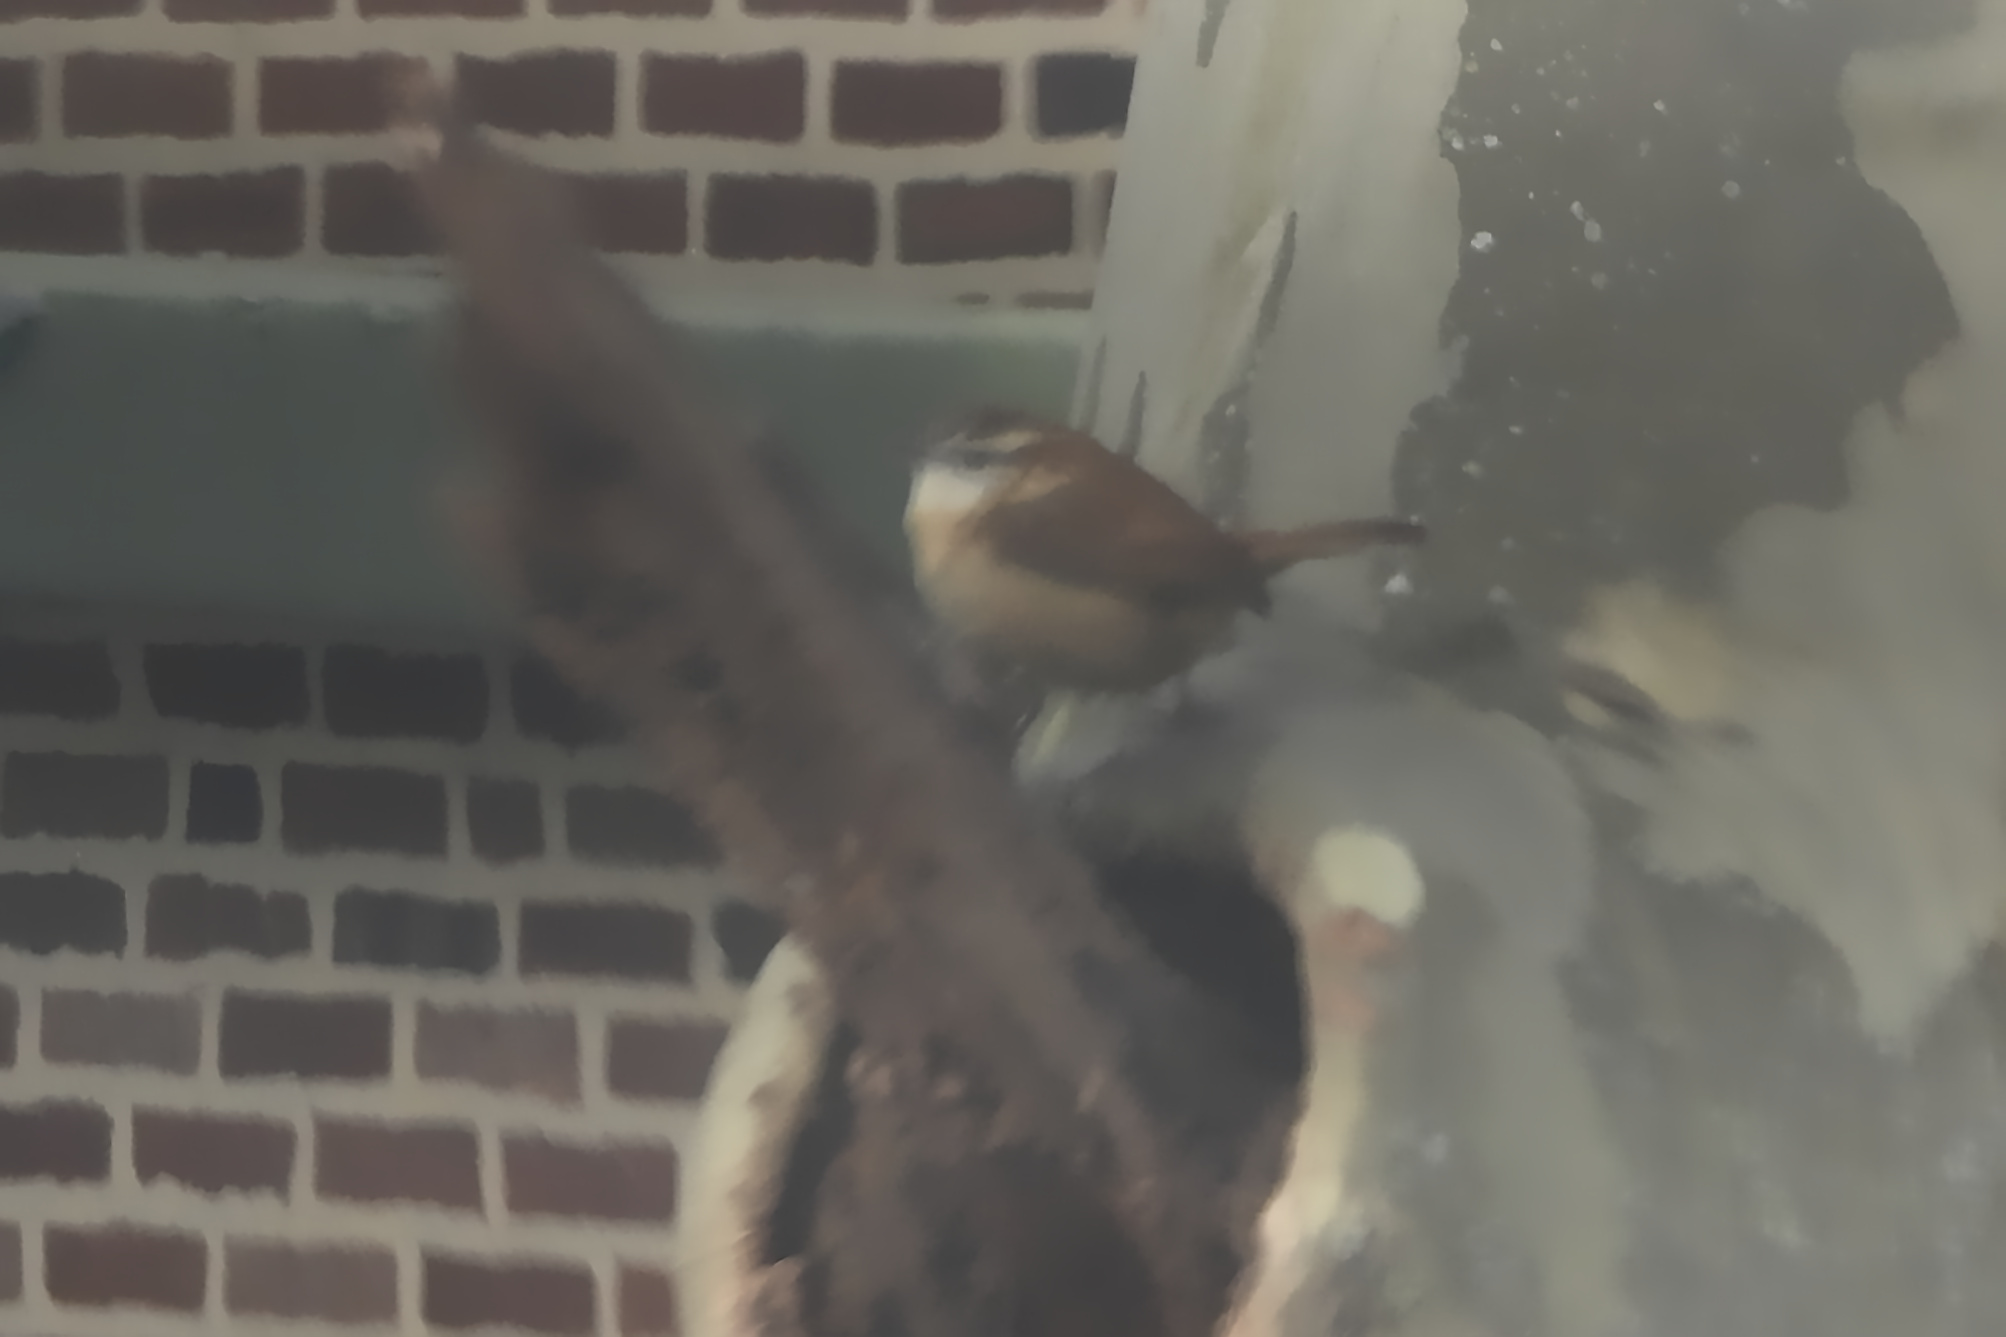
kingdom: Animalia
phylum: Chordata
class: Aves
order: Passeriformes
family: Troglodytidae
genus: Thryothorus
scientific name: Thryothorus ludovicianus
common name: Carolina wren
